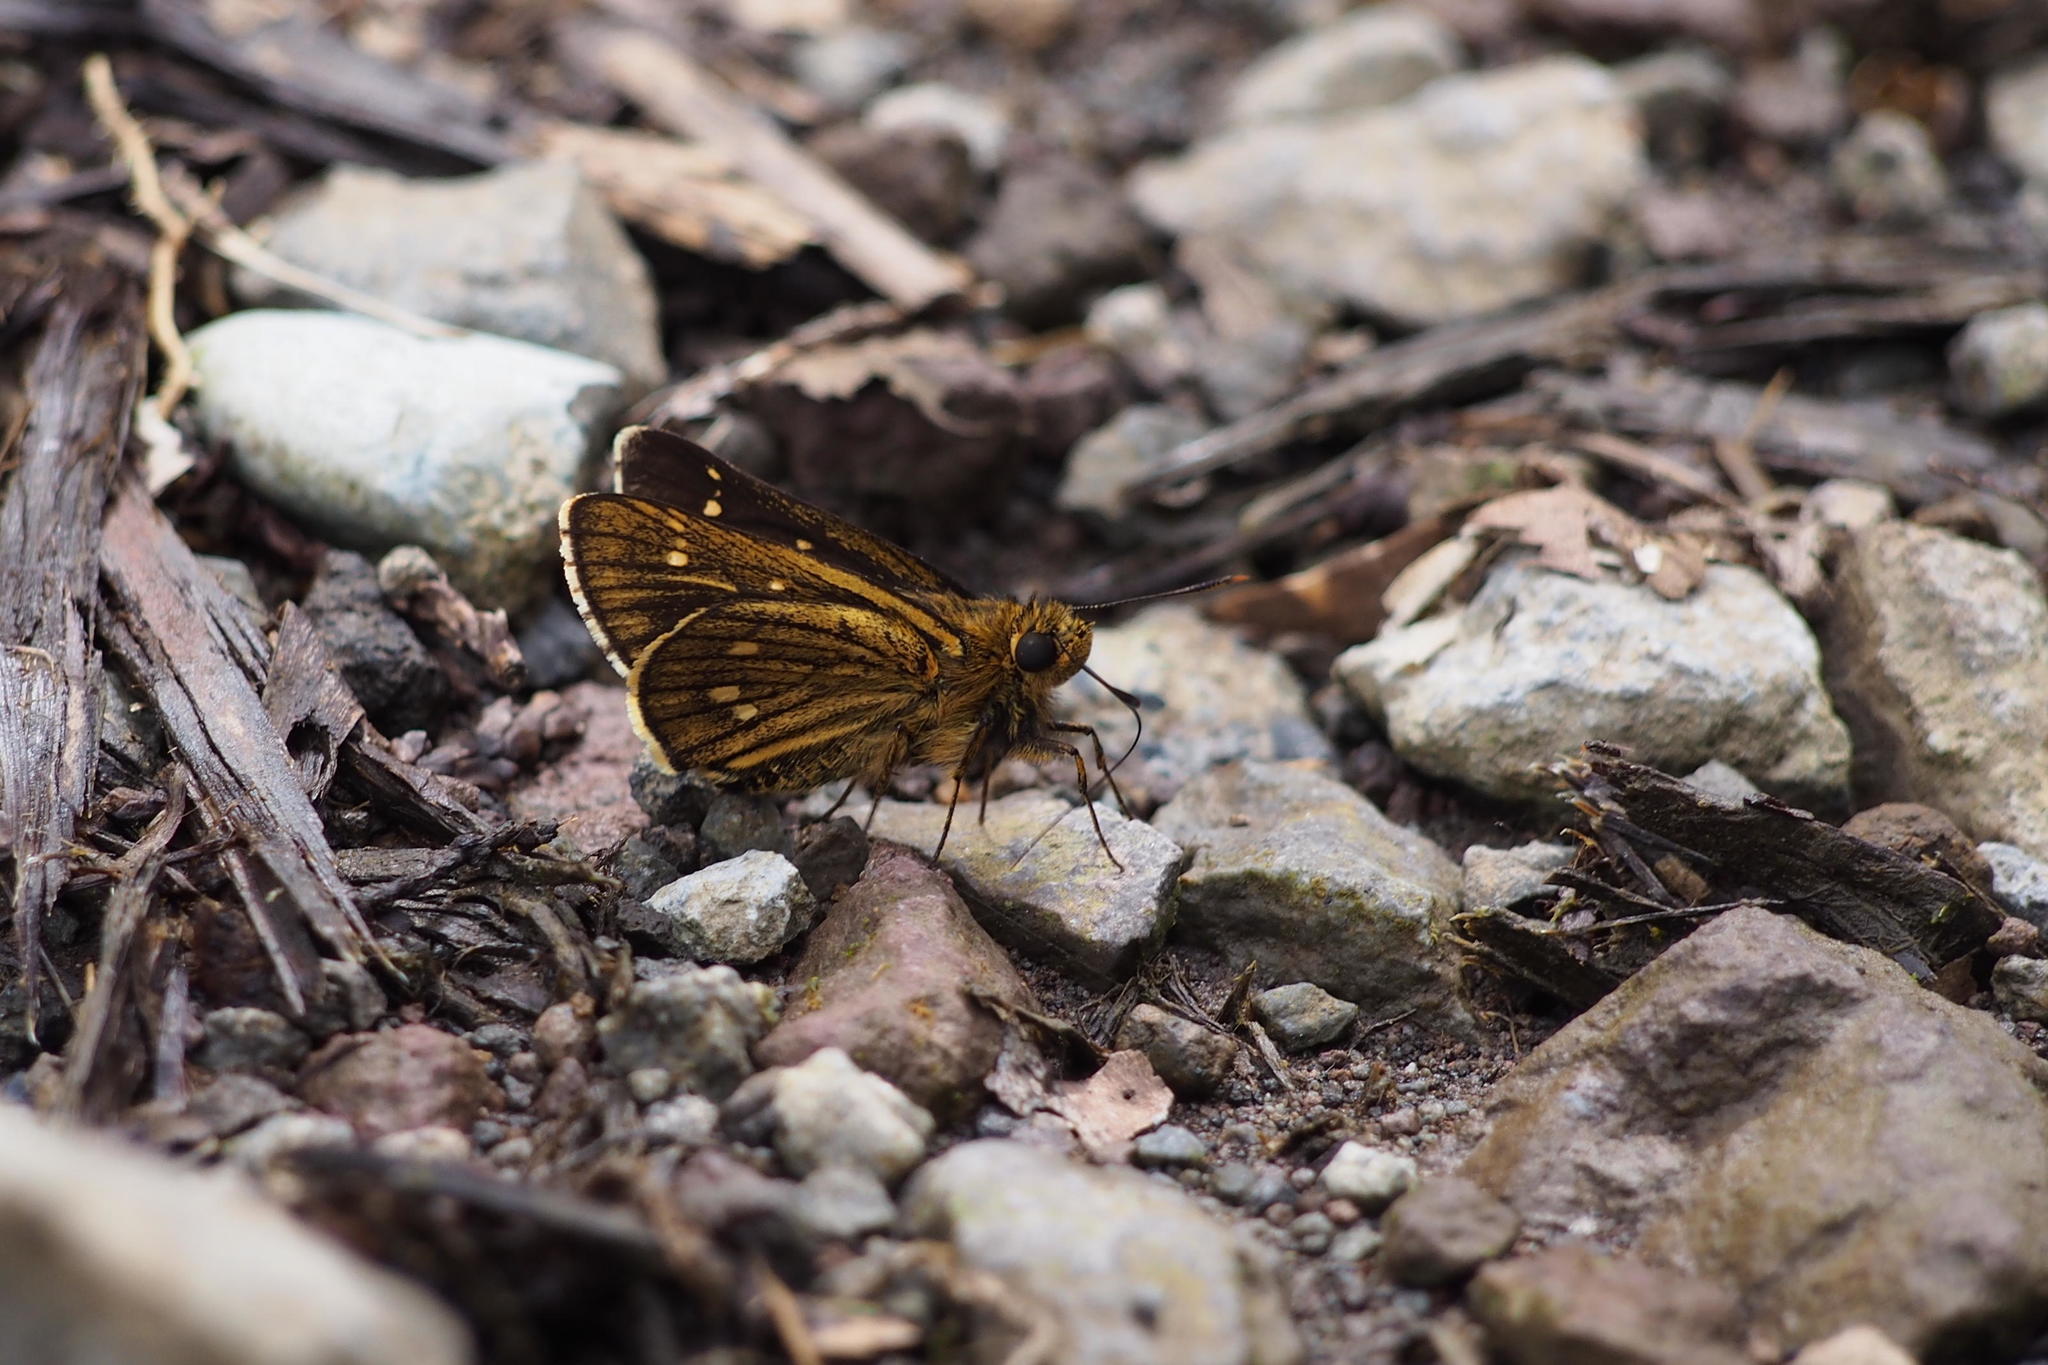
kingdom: Animalia
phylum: Arthropoda
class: Insecta
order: Lepidoptera
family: Hesperiidae
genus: Thoressa
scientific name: Thoressa varia
